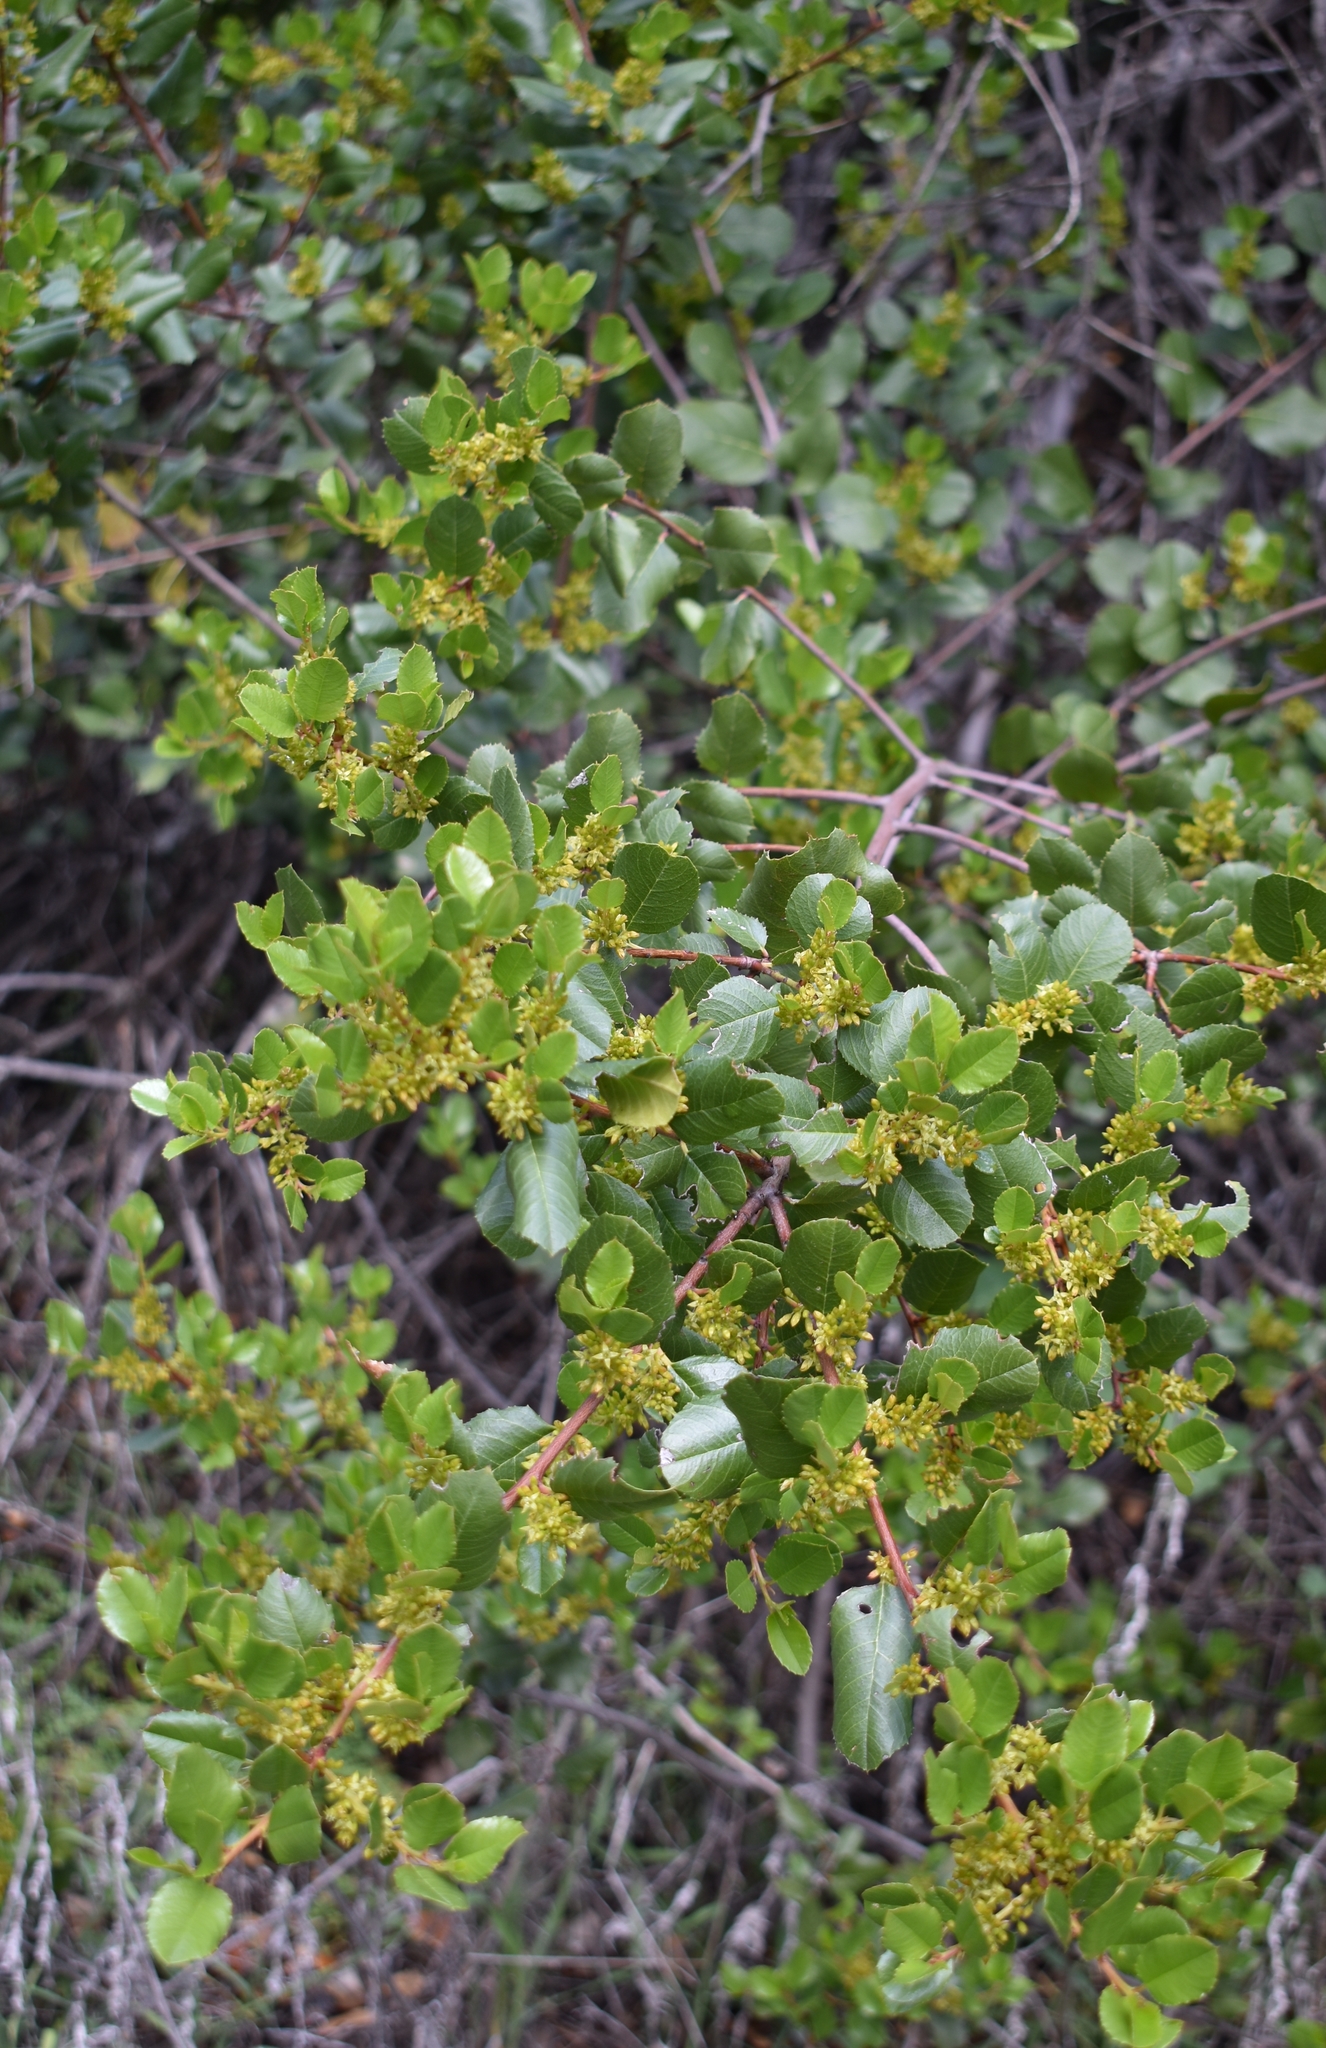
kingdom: Plantae
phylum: Tracheophyta
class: Magnoliopsida
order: Rosales
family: Rhamnaceae
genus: Endotropis
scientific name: Endotropis crocea
